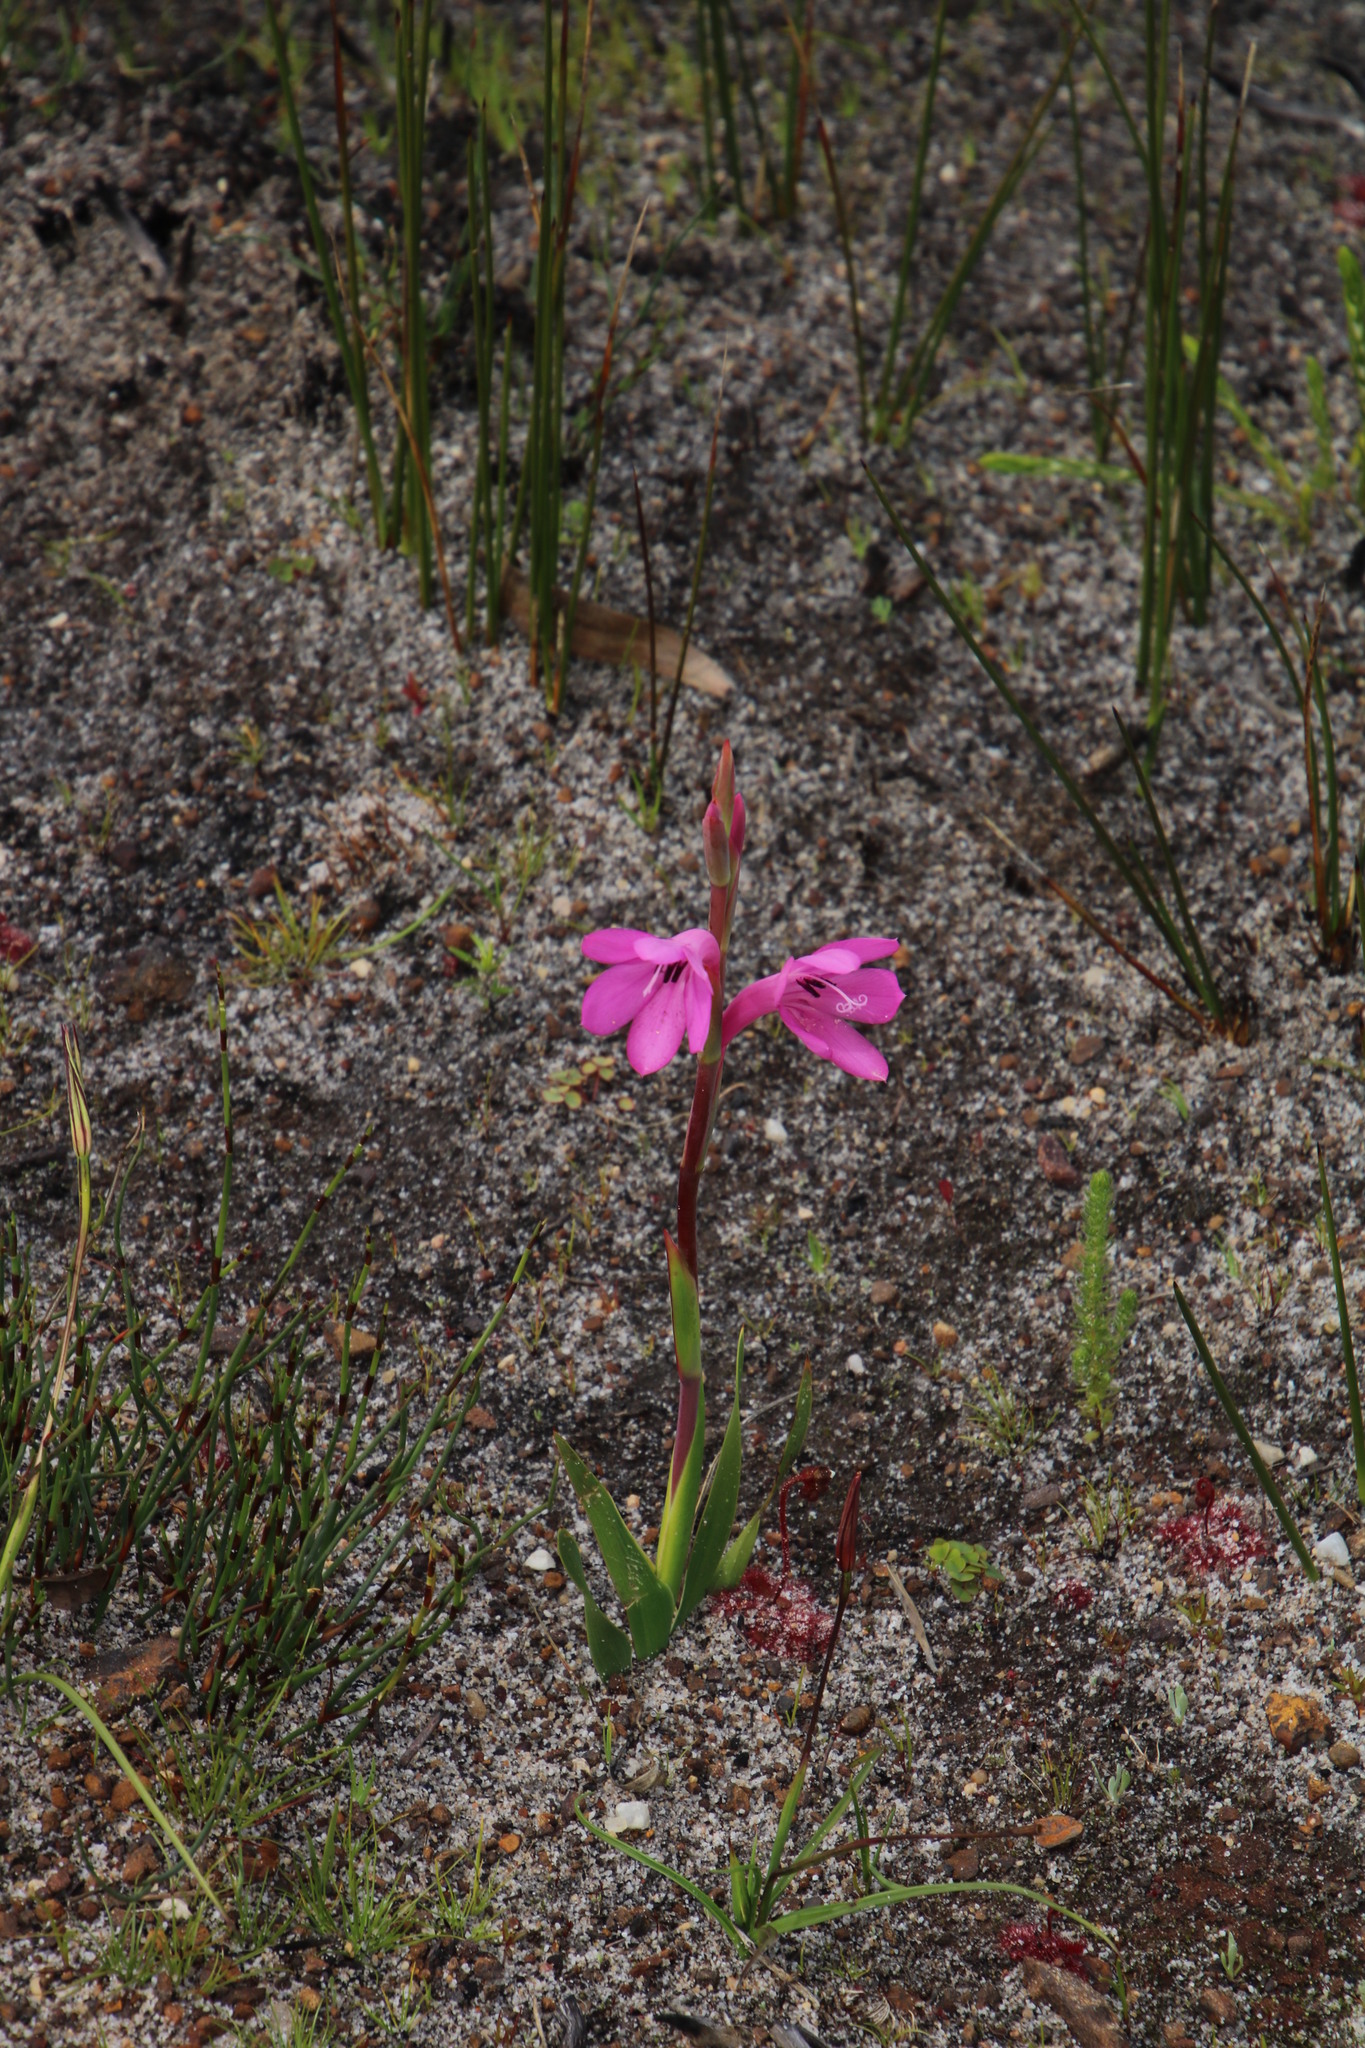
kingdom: Plantae
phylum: Tracheophyta
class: Liliopsida
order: Asparagales
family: Iridaceae
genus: Watsonia
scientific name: Watsonia coccinea
